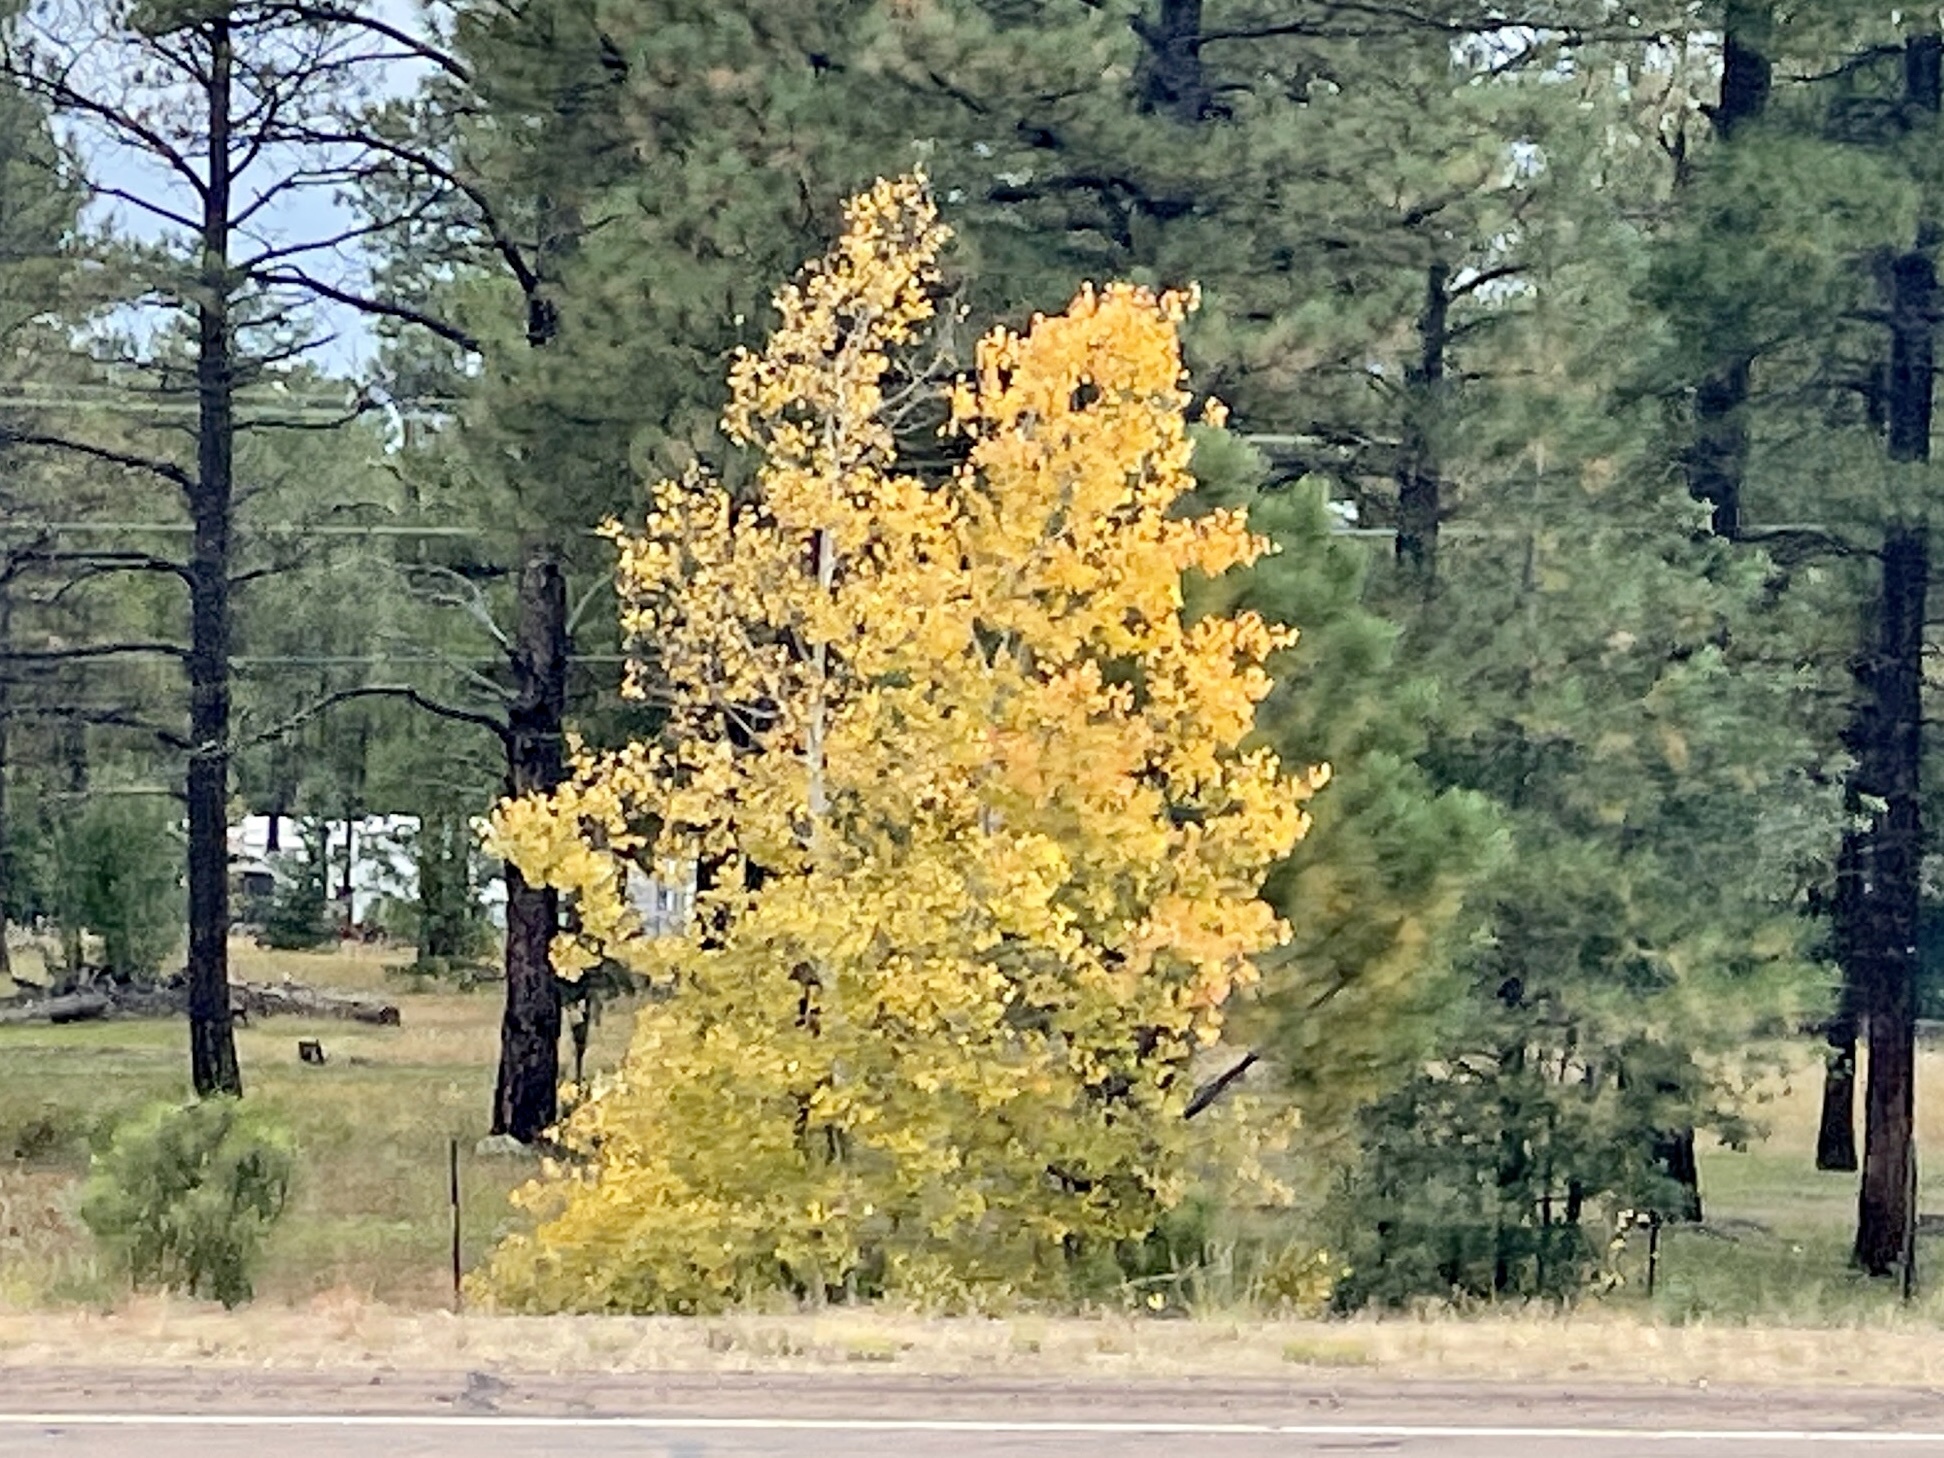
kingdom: Plantae
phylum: Tracheophyta
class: Magnoliopsida
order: Malpighiales
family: Salicaceae
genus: Populus
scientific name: Populus tremuloides
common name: Quaking aspen
